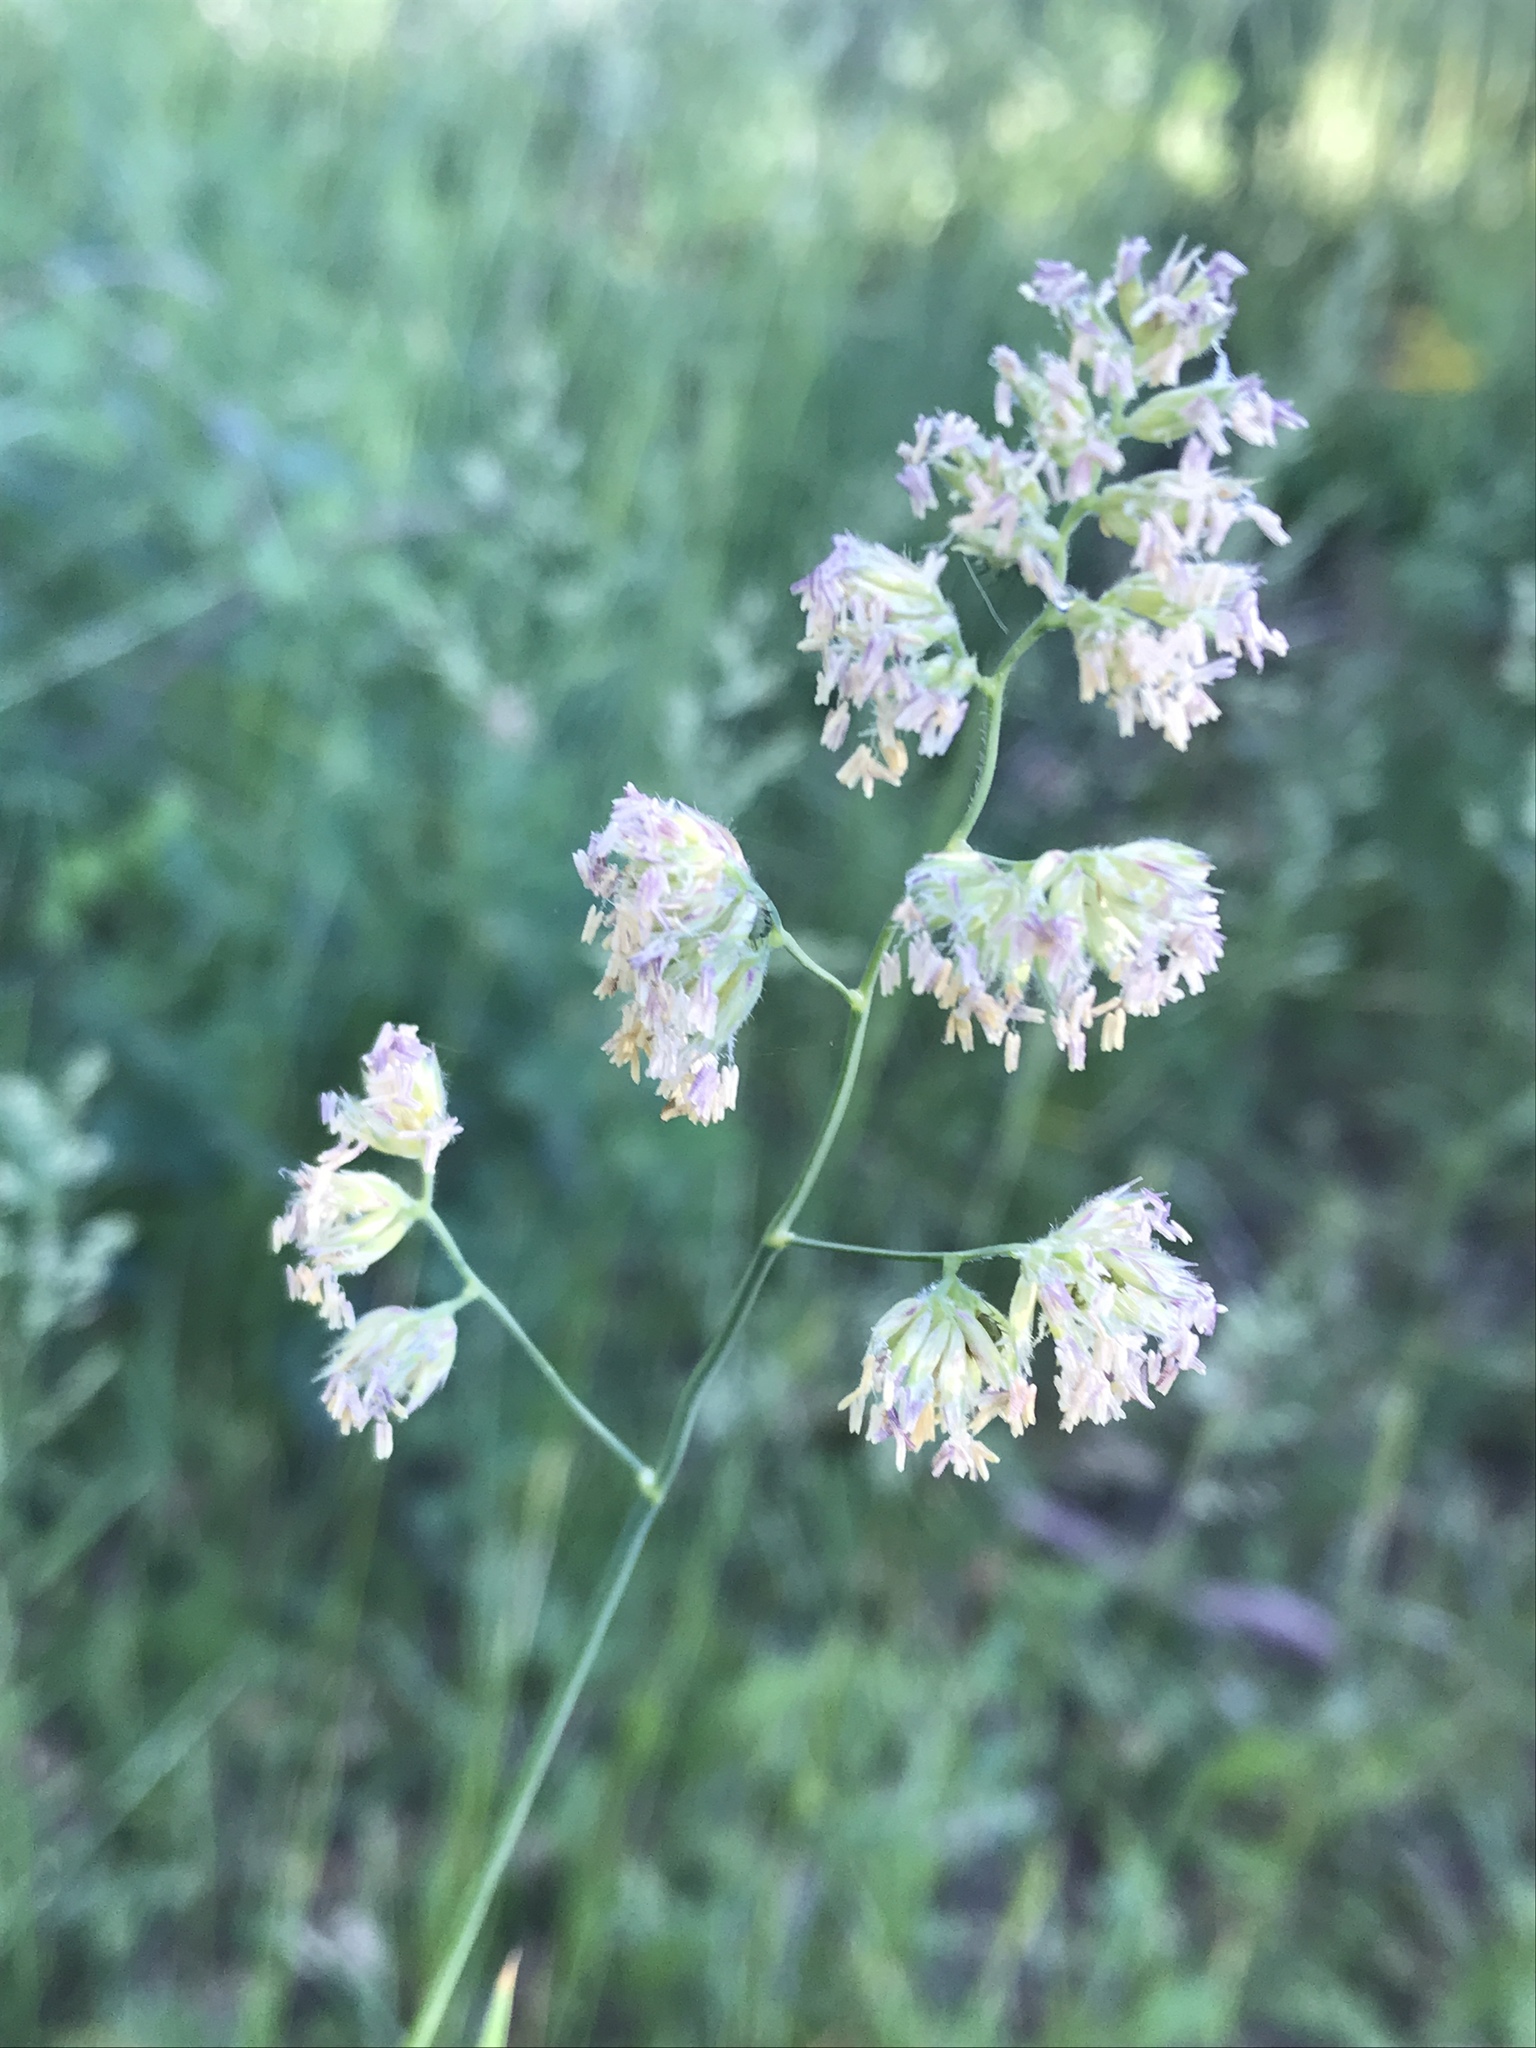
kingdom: Plantae
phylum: Tracheophyta
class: Liliopsida
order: Poales
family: Poaceae
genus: Dactylis
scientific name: Dactylis glomerata
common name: Orchardgrass
